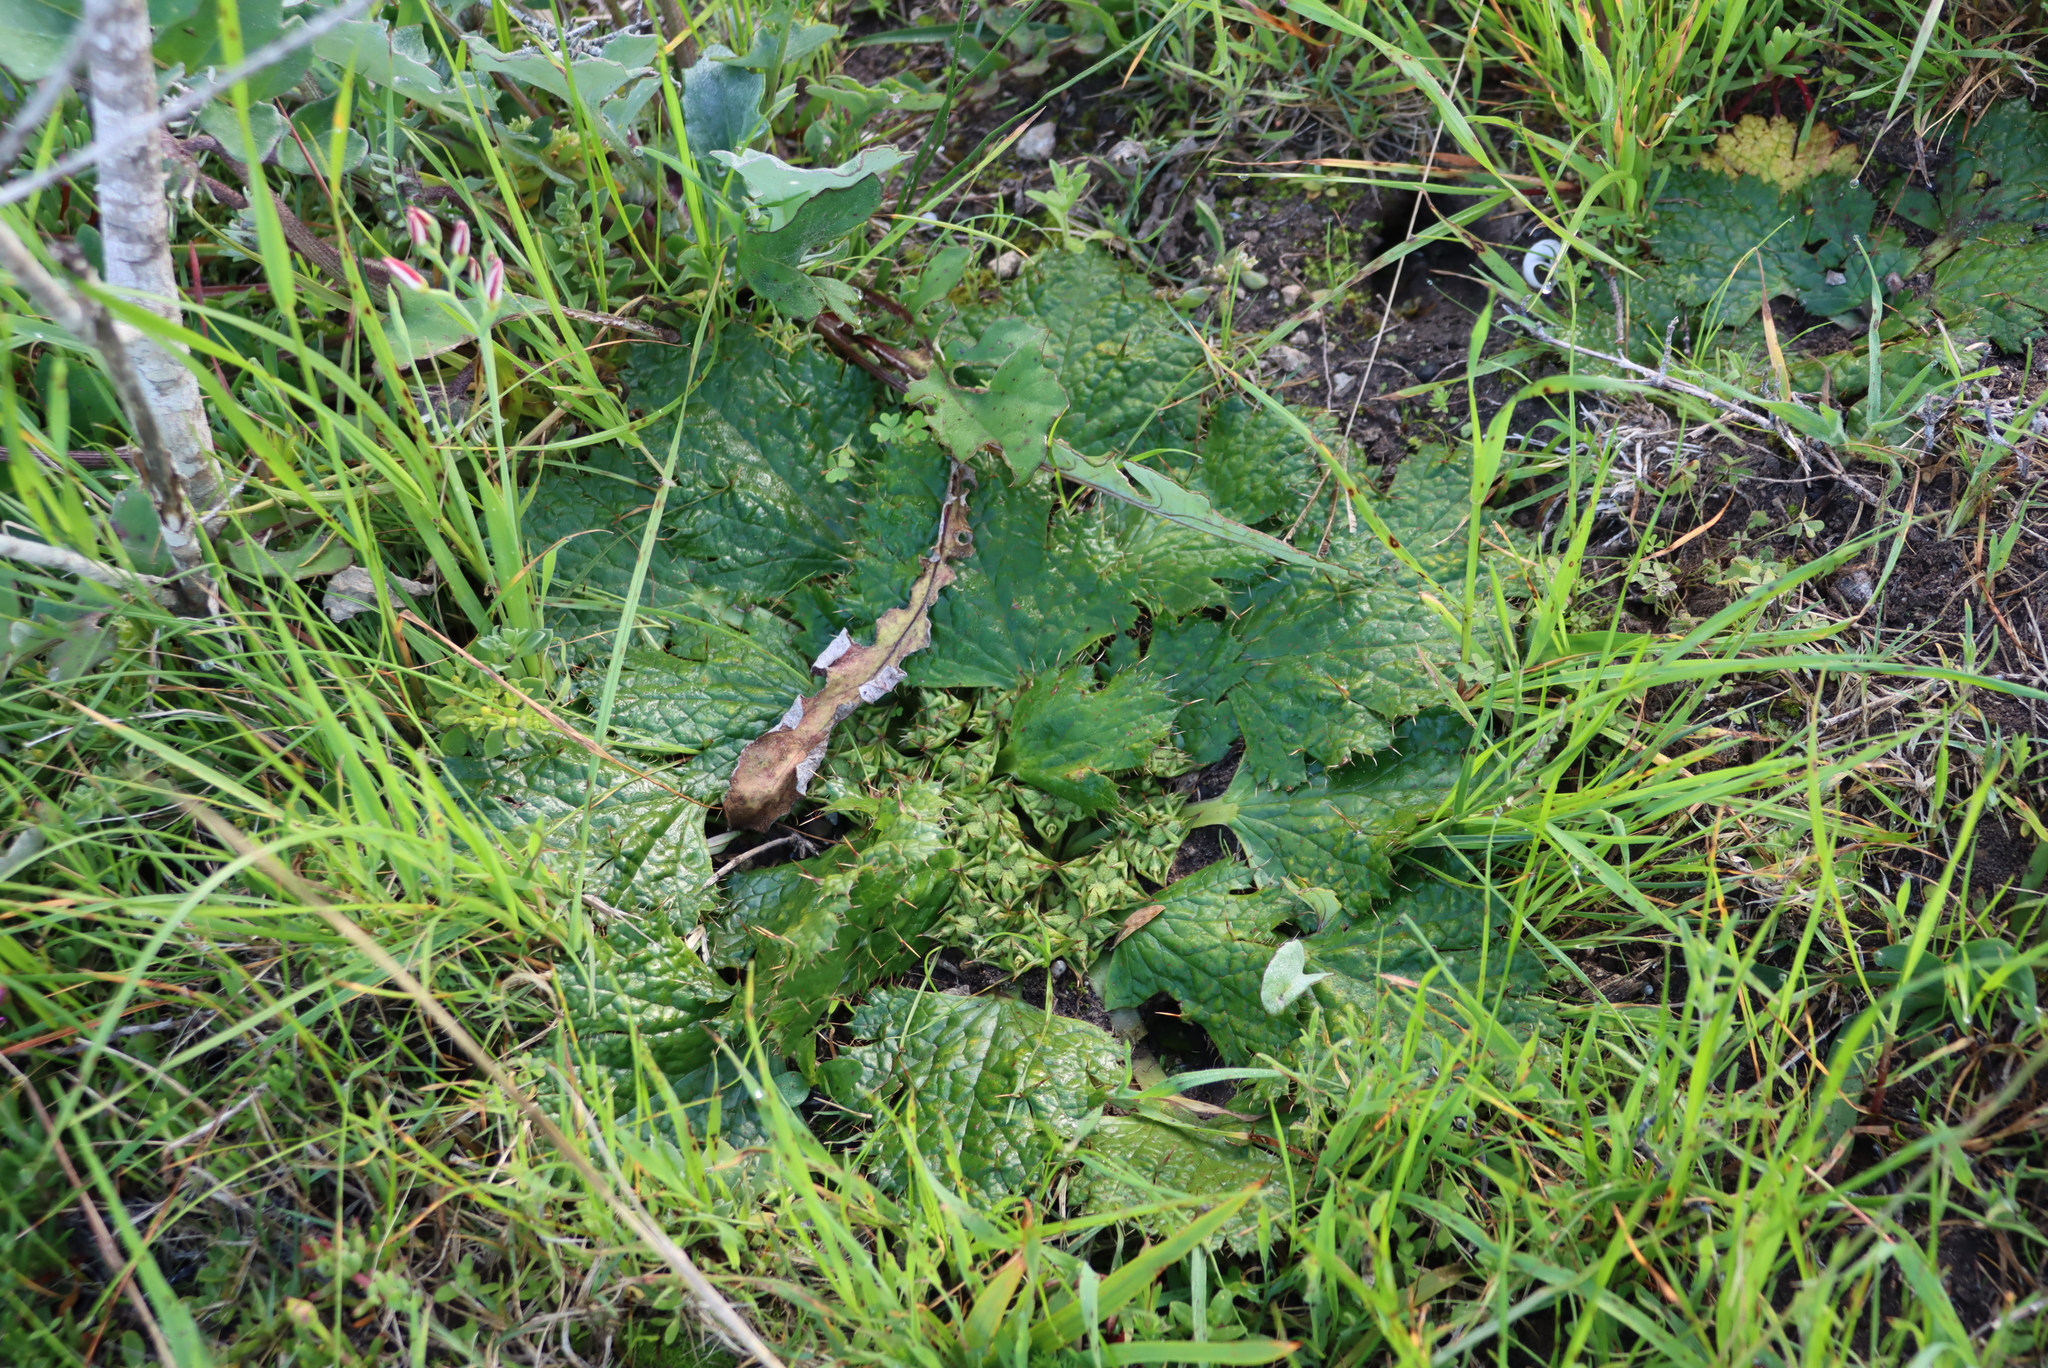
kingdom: Plantae
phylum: Tracheophyta
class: Magnoliopsida
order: Apiales
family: Apiaceae
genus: Arctopus
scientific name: Arctopus echinatus
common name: Platdoring
